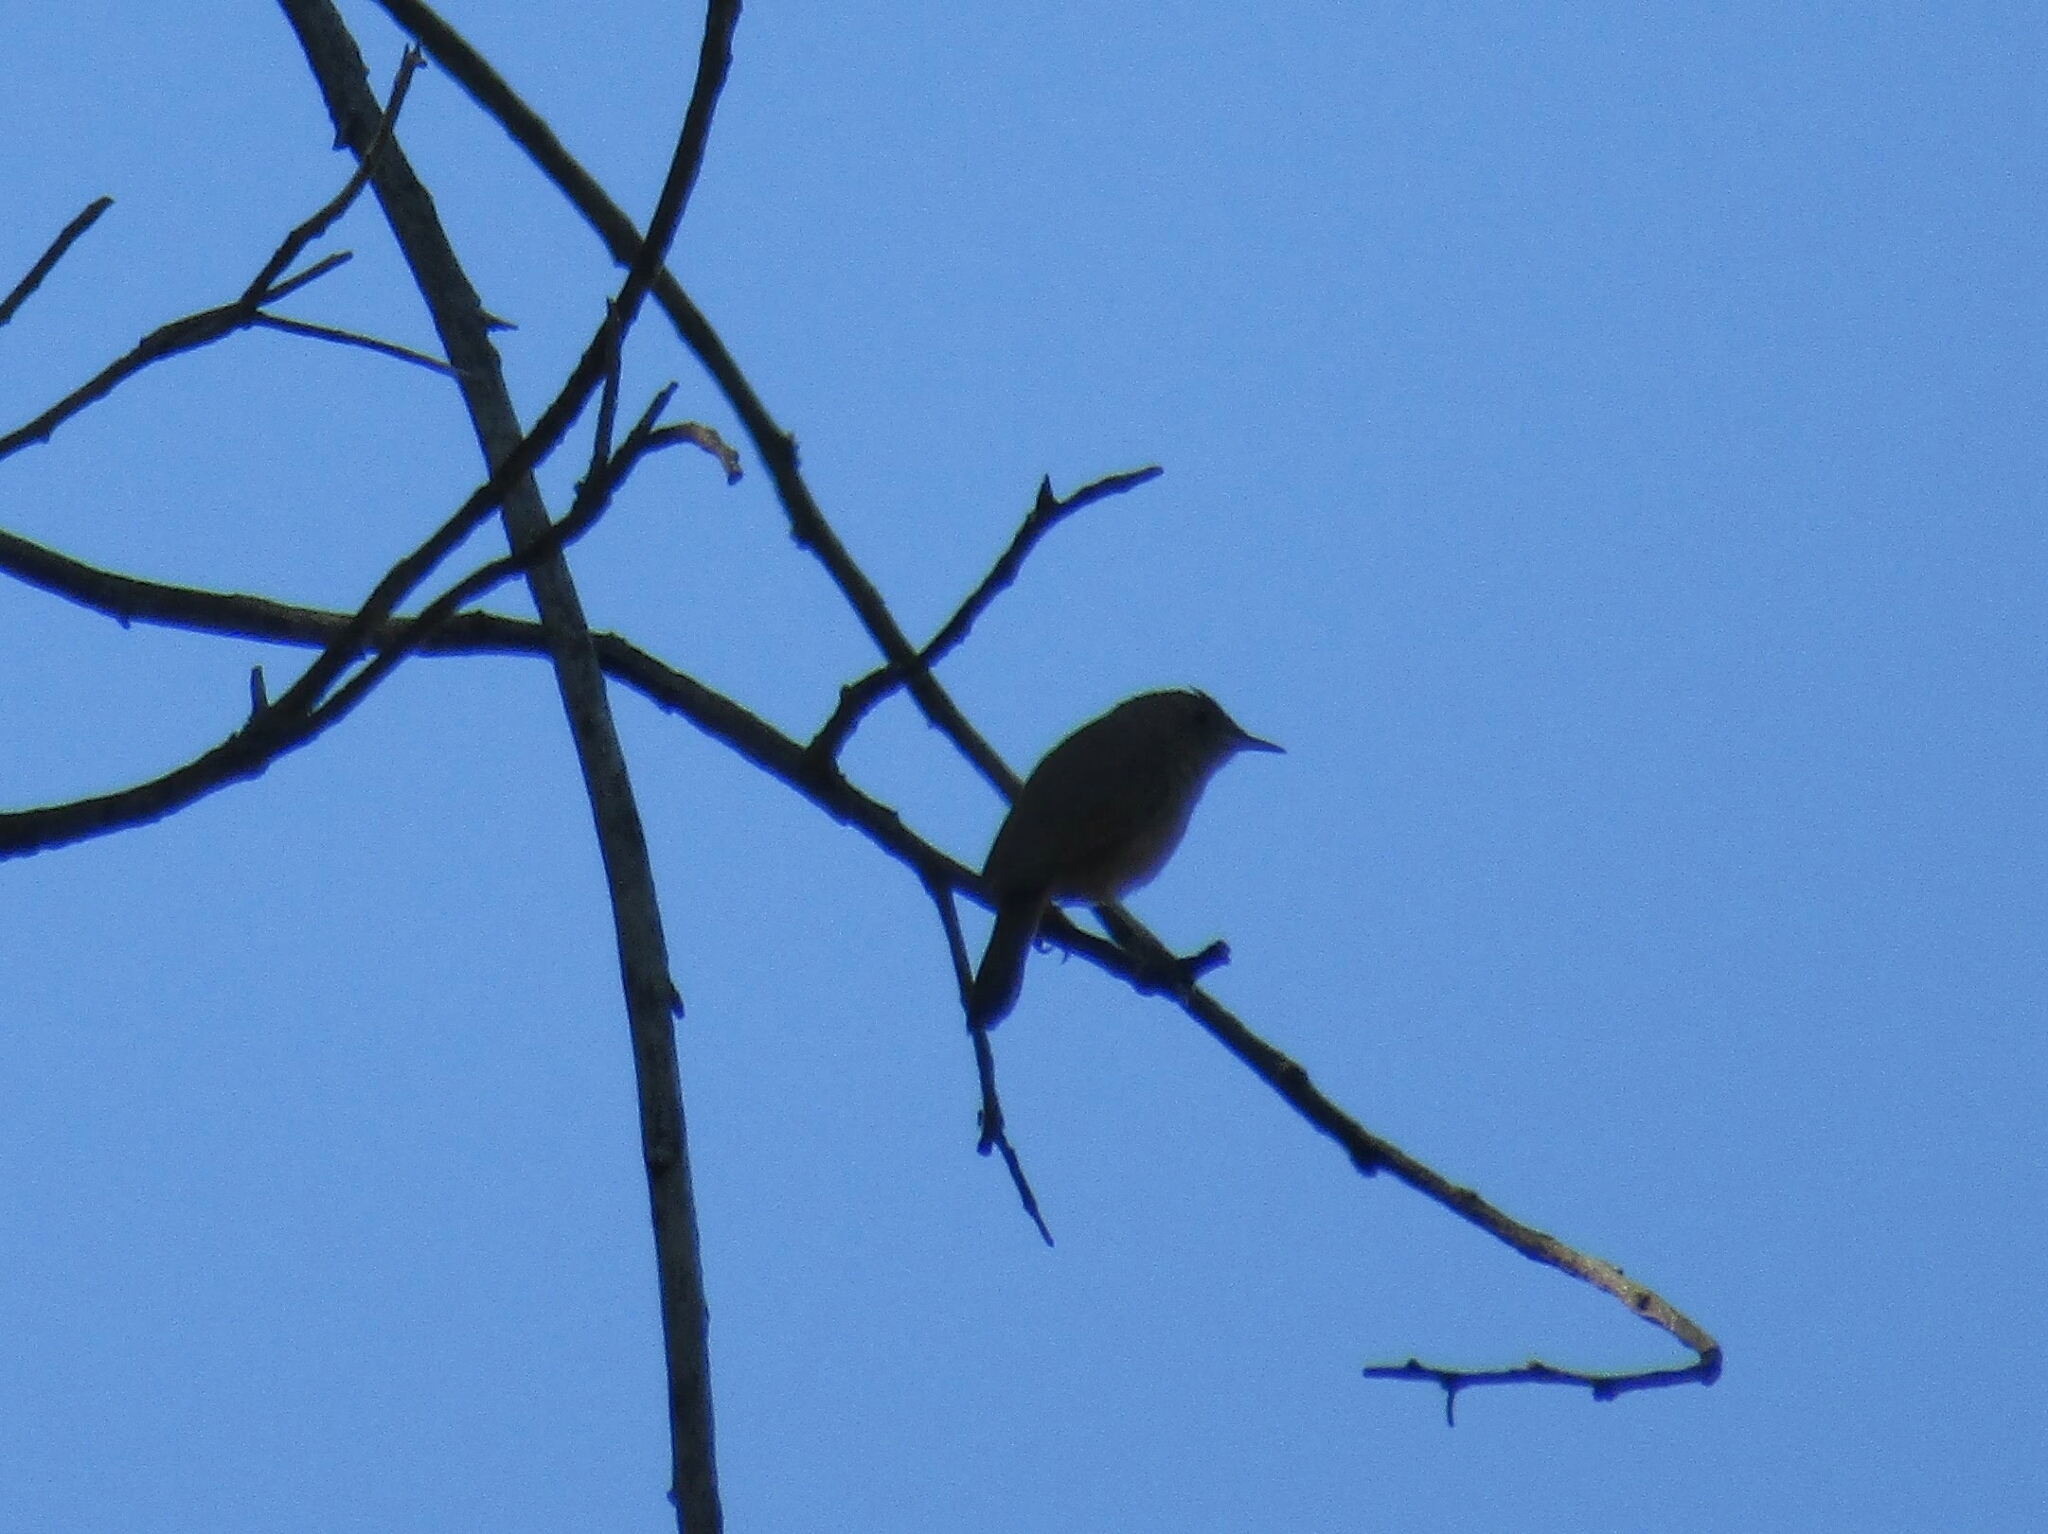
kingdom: Animalia
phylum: Chordata
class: Aves
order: Passeriformes
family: Troglodytidae
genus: Troglodytes
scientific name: Troglodytes aedon
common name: House wren
